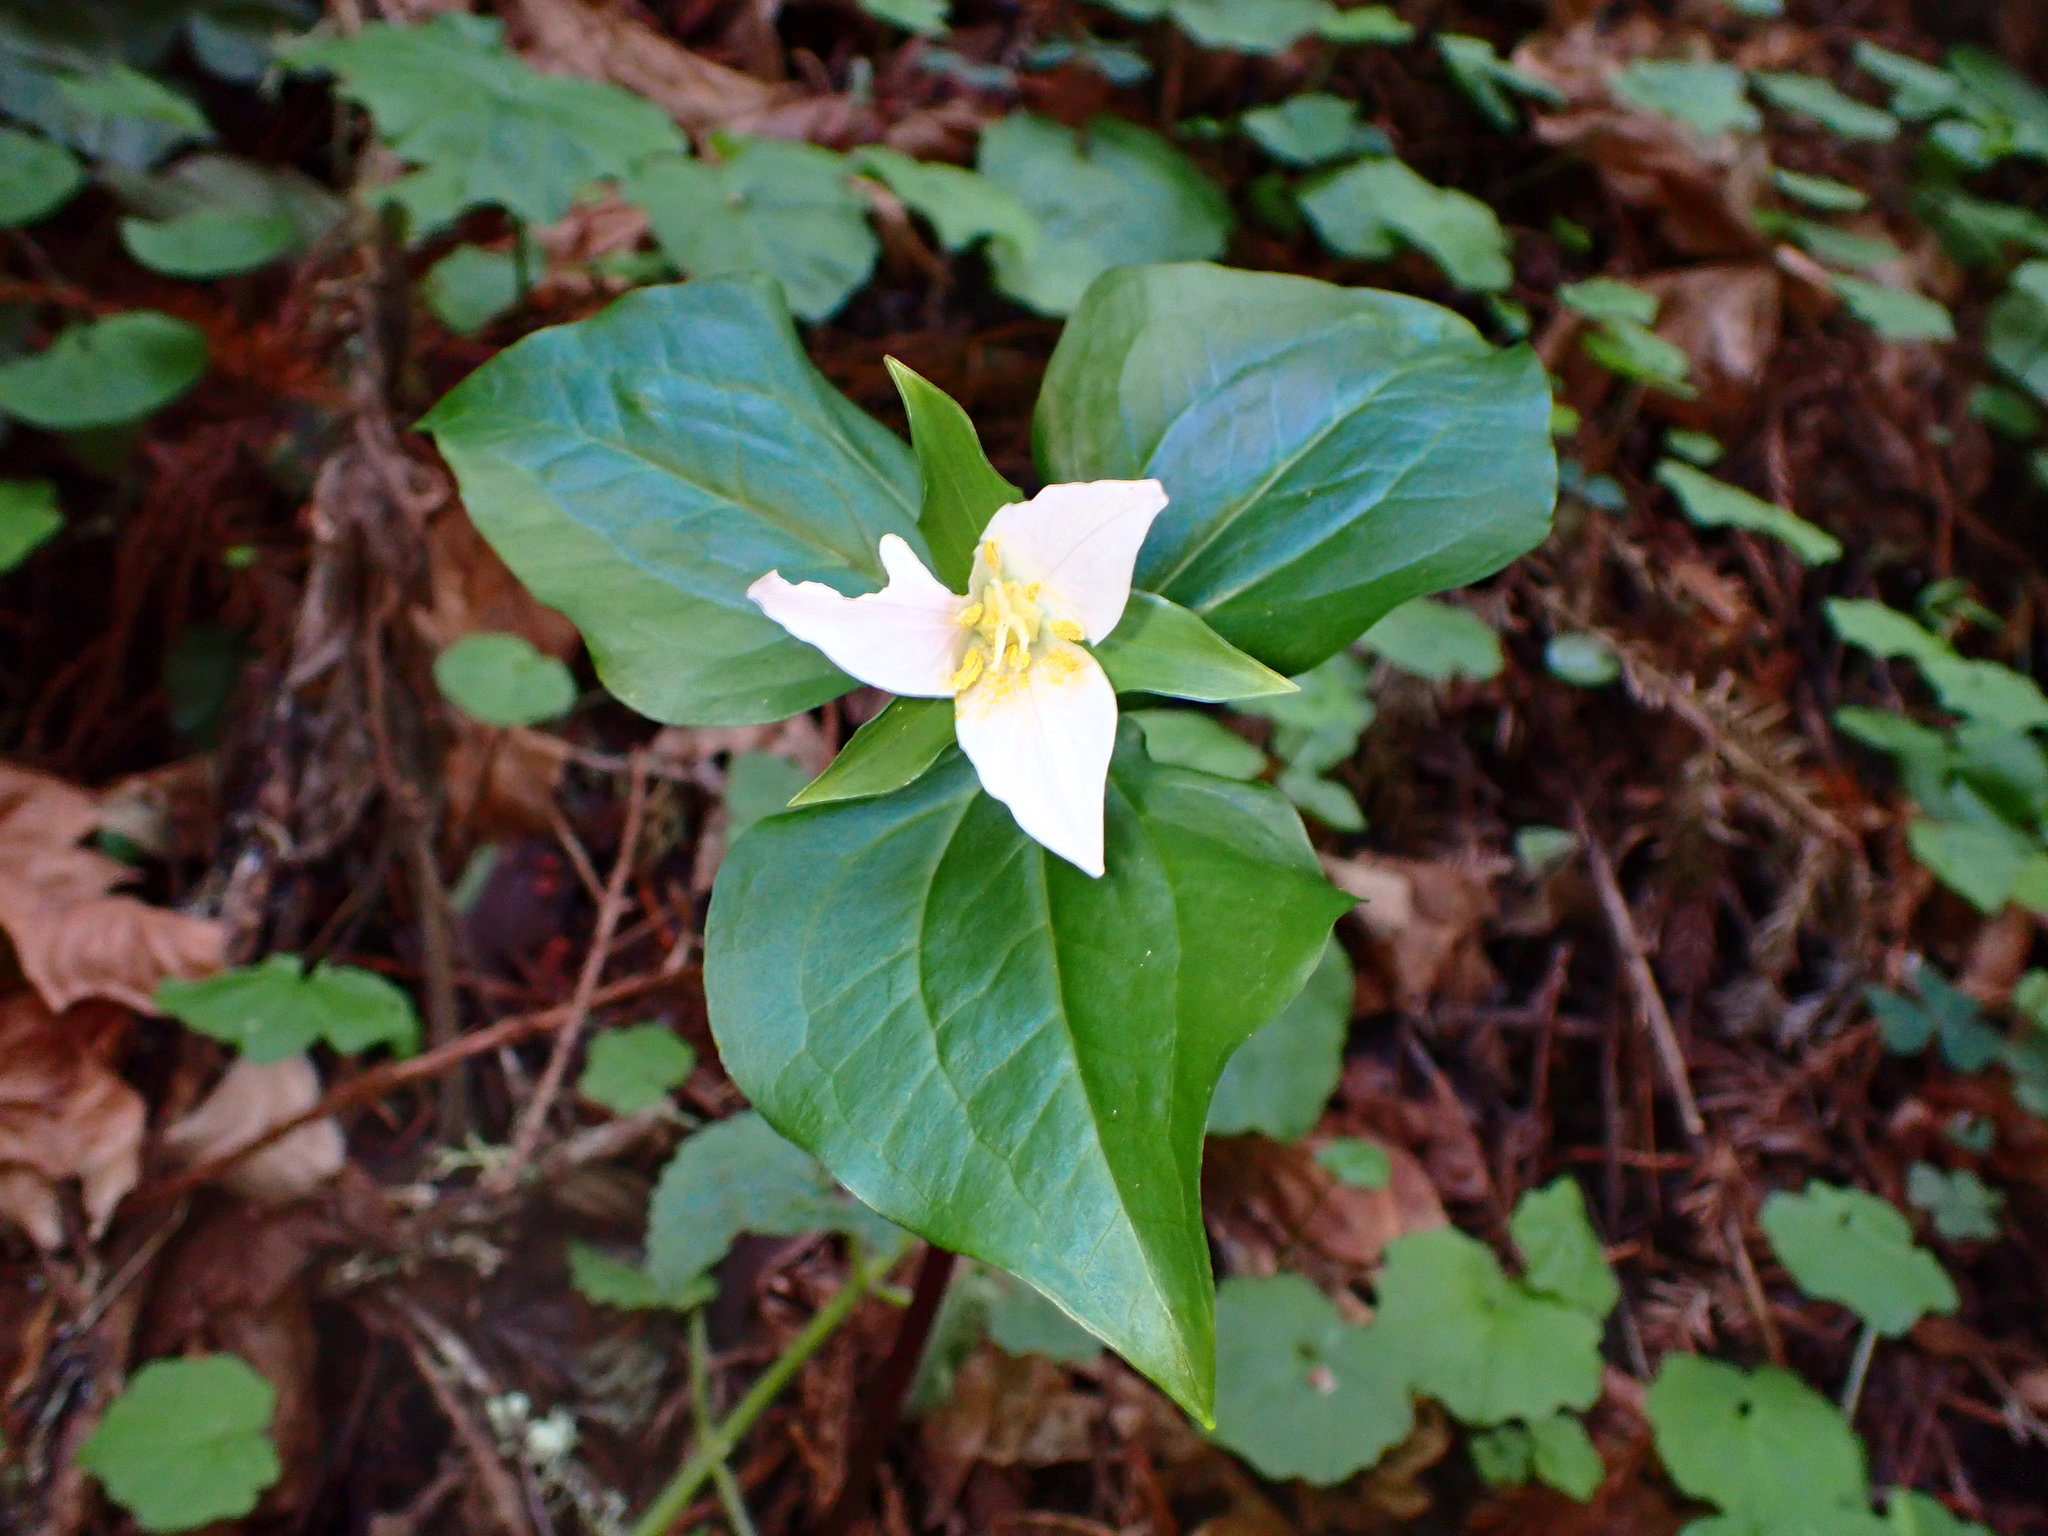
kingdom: Plantae
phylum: Tracheophyta
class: Liliopsida
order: Liliales
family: Melanthiaceae
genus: Trillium
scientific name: Trillium ovatum
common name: Pacific trillium
